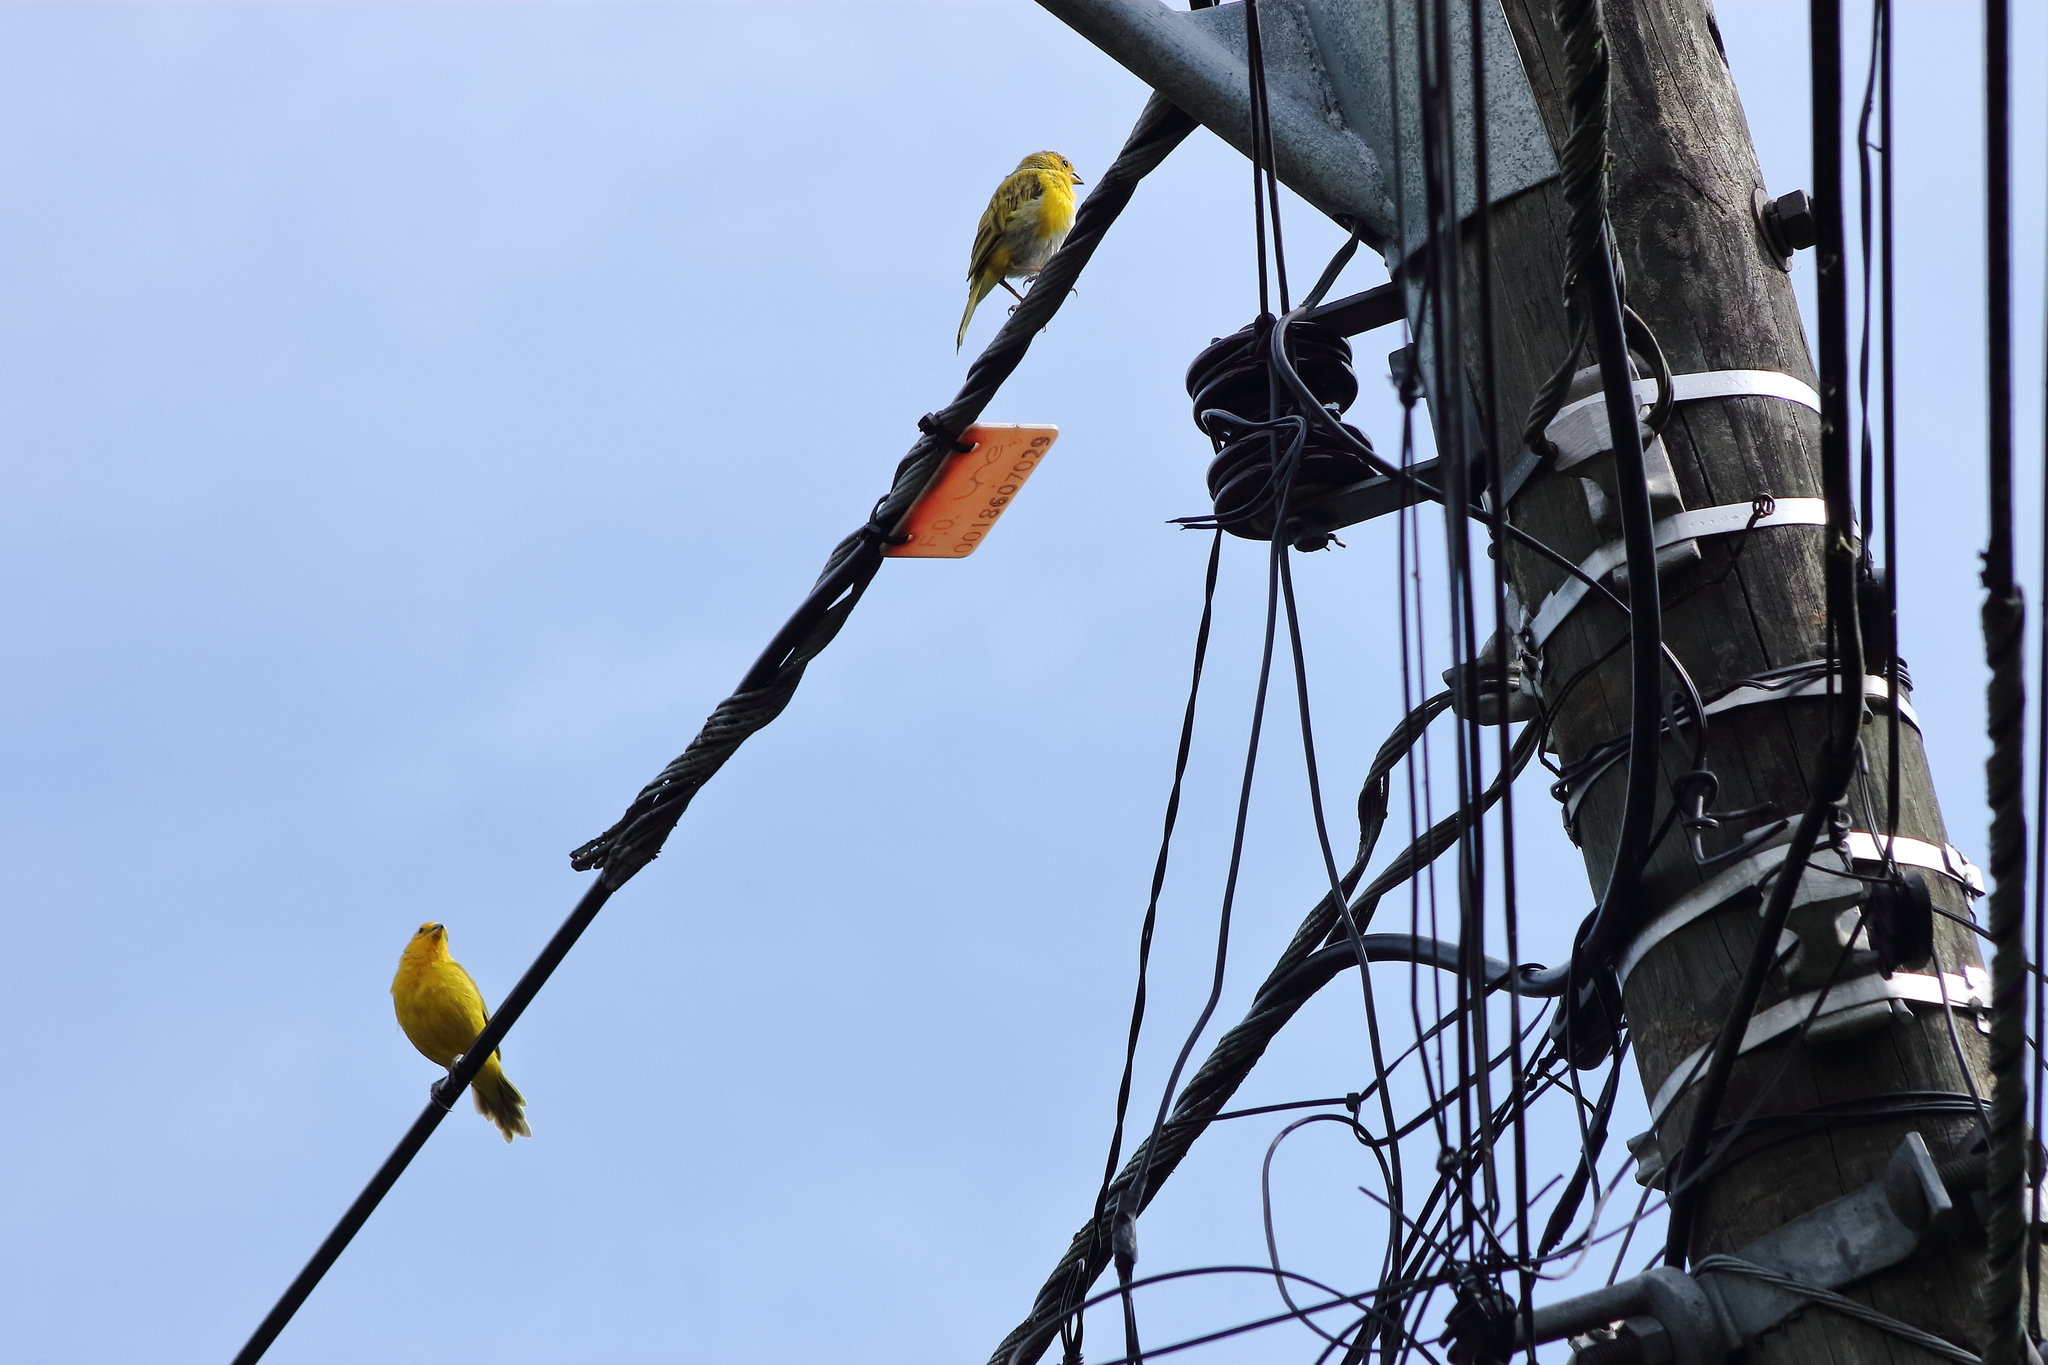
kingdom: Animalia
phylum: Chordata
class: Aves
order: Passeriformes
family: Thraupidae
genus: Sicalis
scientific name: Sicalis flaveola
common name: Saffron finch
